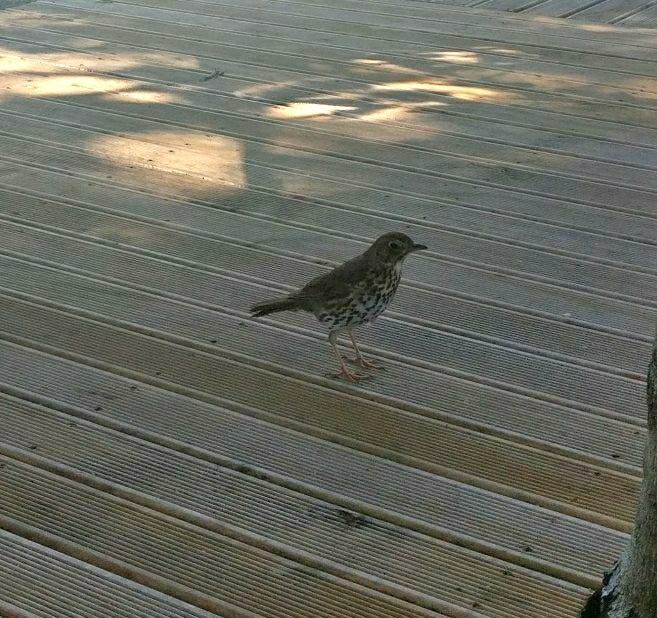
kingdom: Animalia
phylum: Chordata
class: Aves
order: Passeriformes
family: Turdidae
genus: Turdus
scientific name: Turdus philomelos
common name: Song thrush
